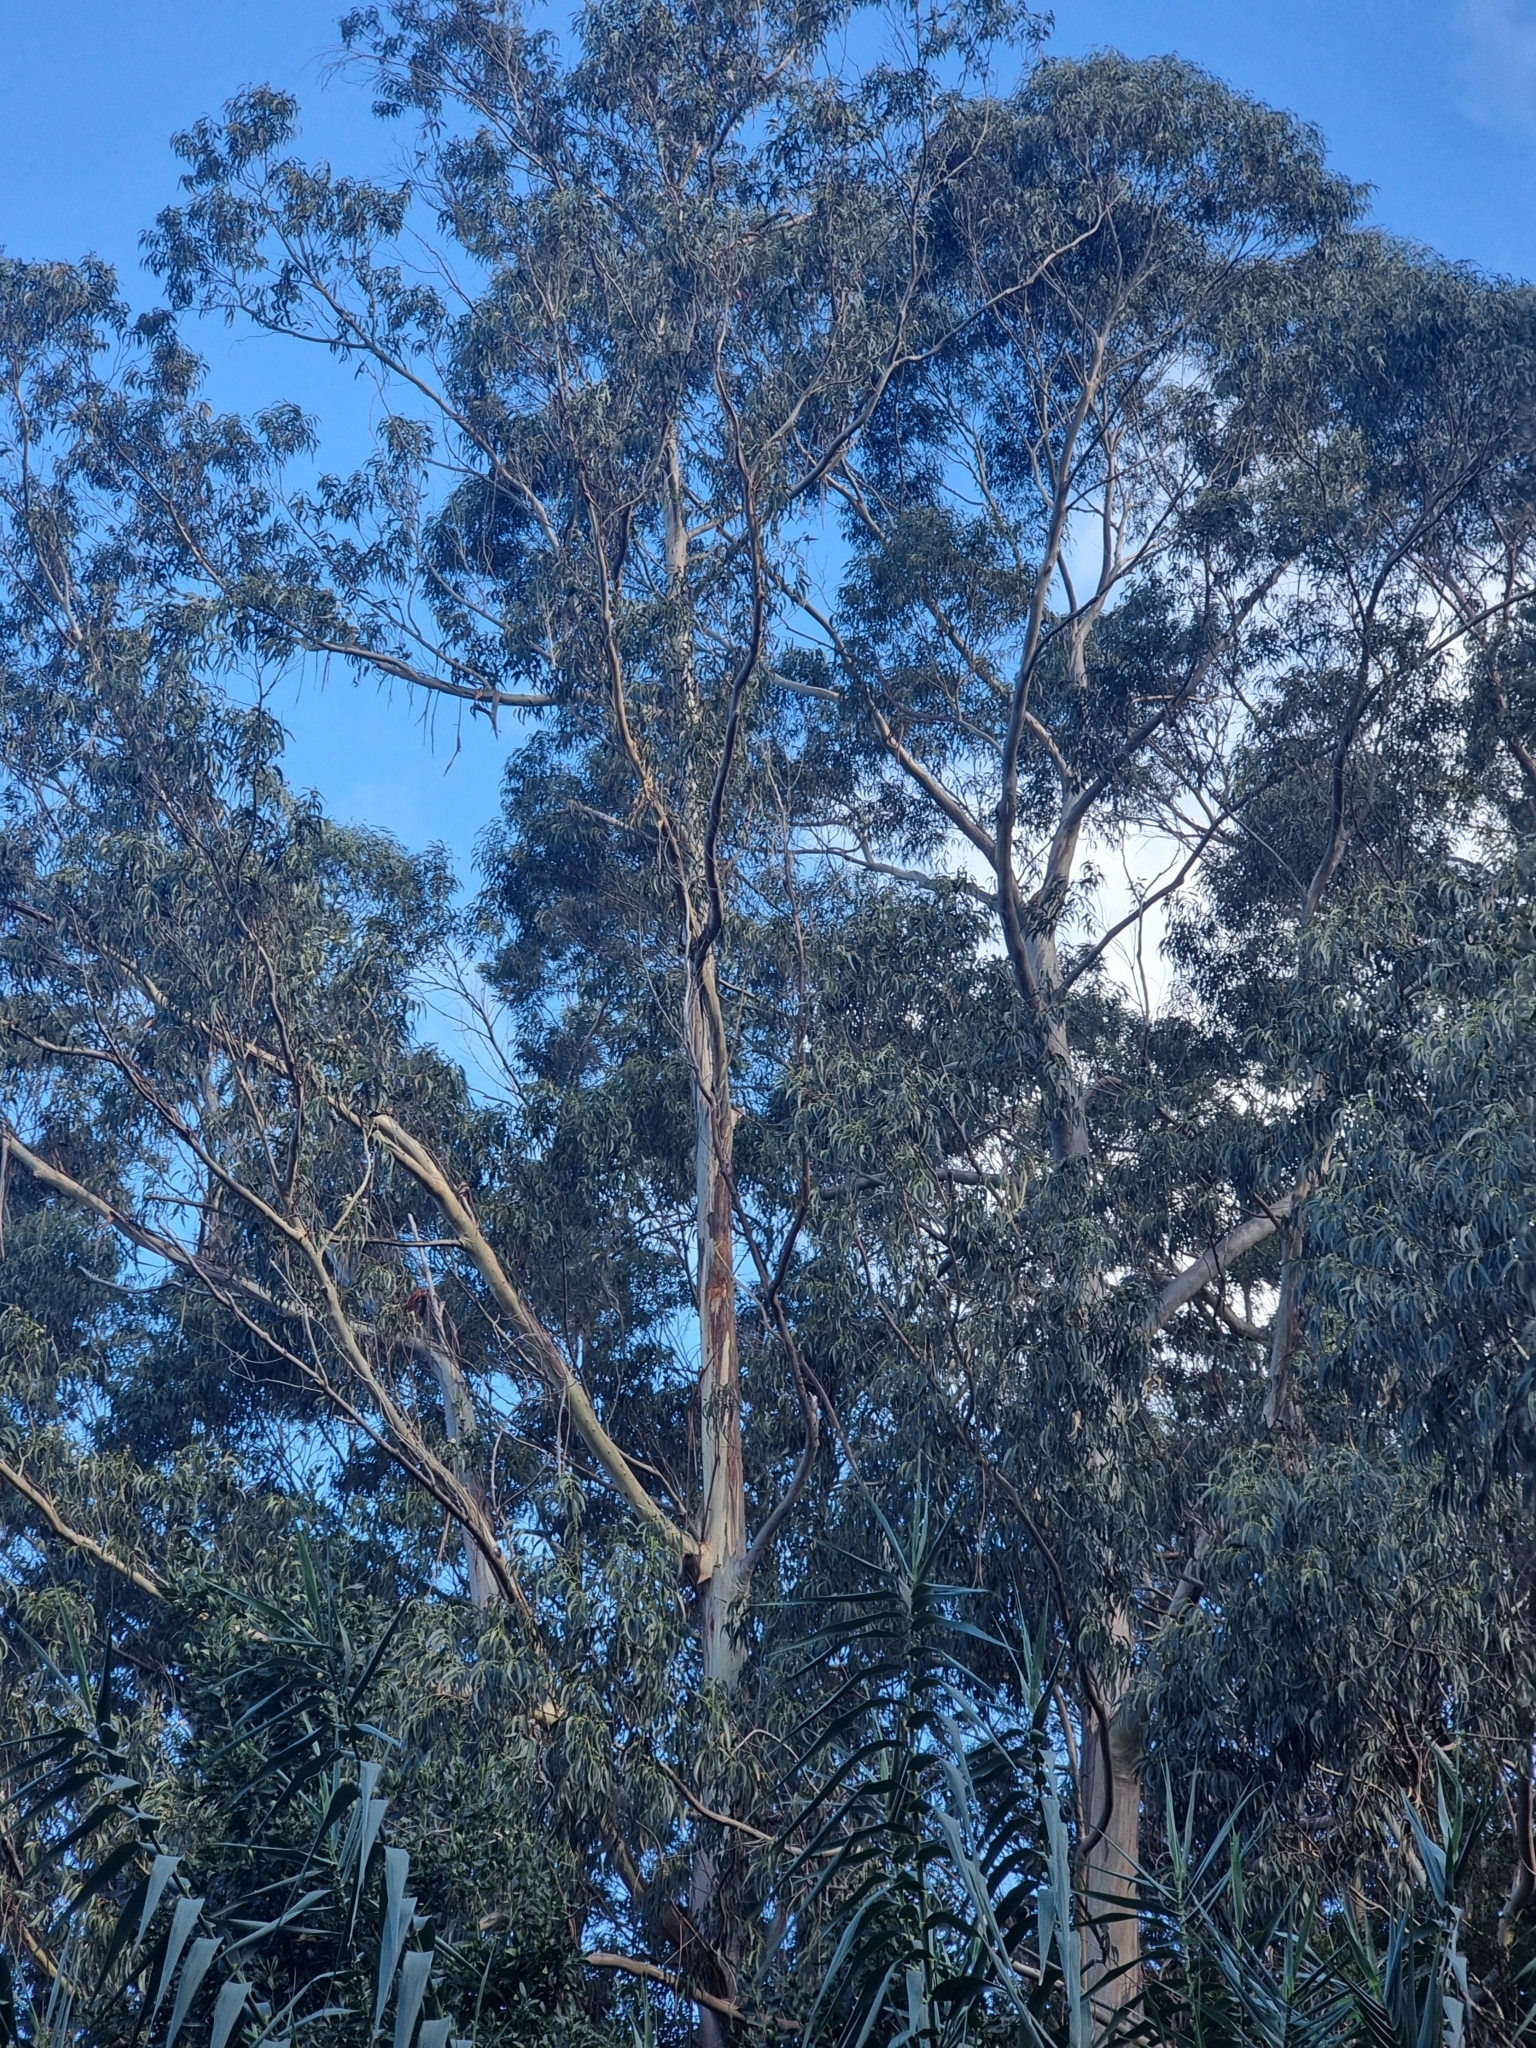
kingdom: Plantae
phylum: Tracheophyta
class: Magnoliopsida
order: Myrtales
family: Myrtaceae
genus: Eucalyptus
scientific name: Eucalyptus globulus
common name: Southern blue-gum
